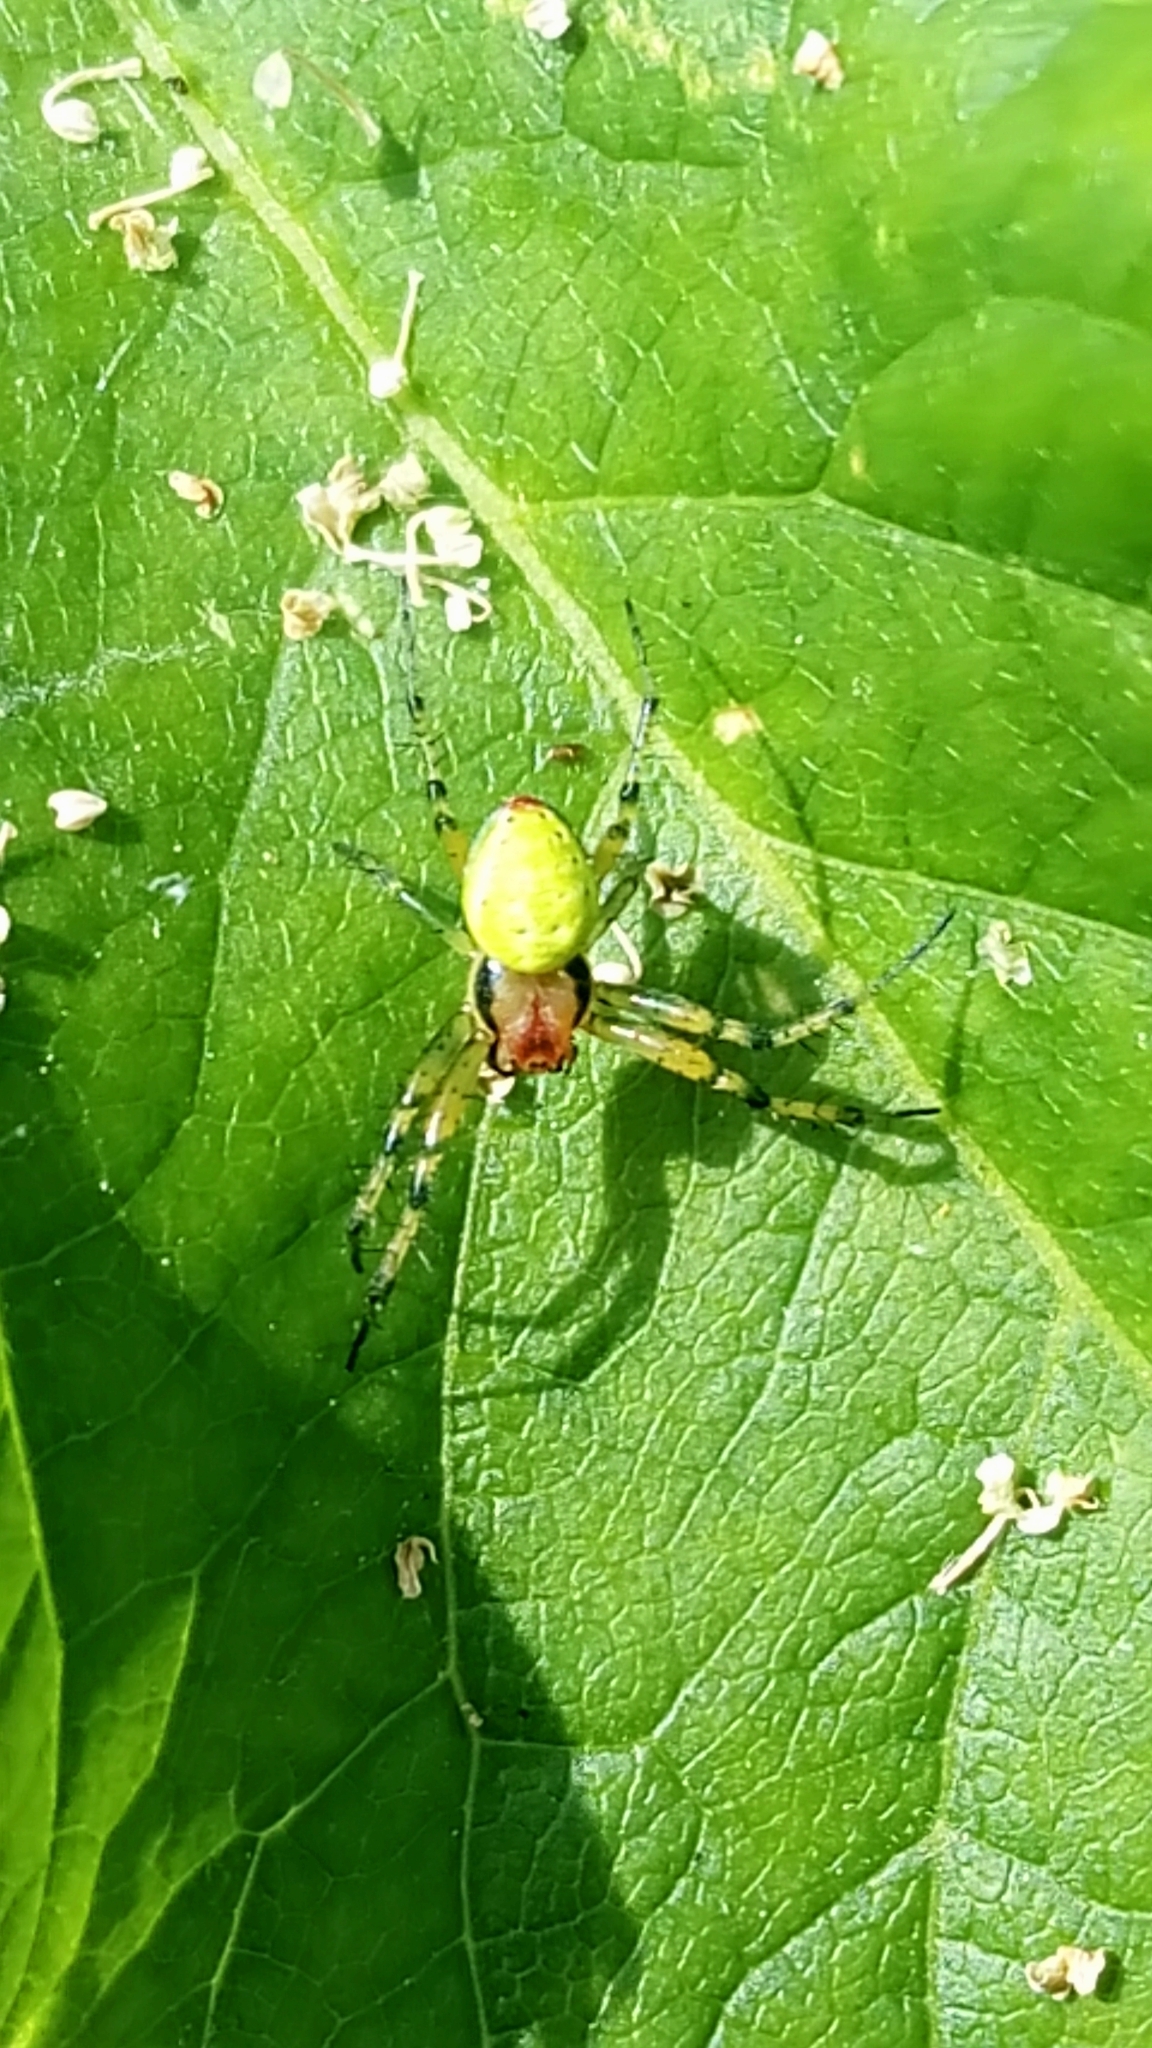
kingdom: Animalia
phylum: Arthropoda
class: Arachnida
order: Araneae
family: Araneidae
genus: Araniella
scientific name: Araniella
